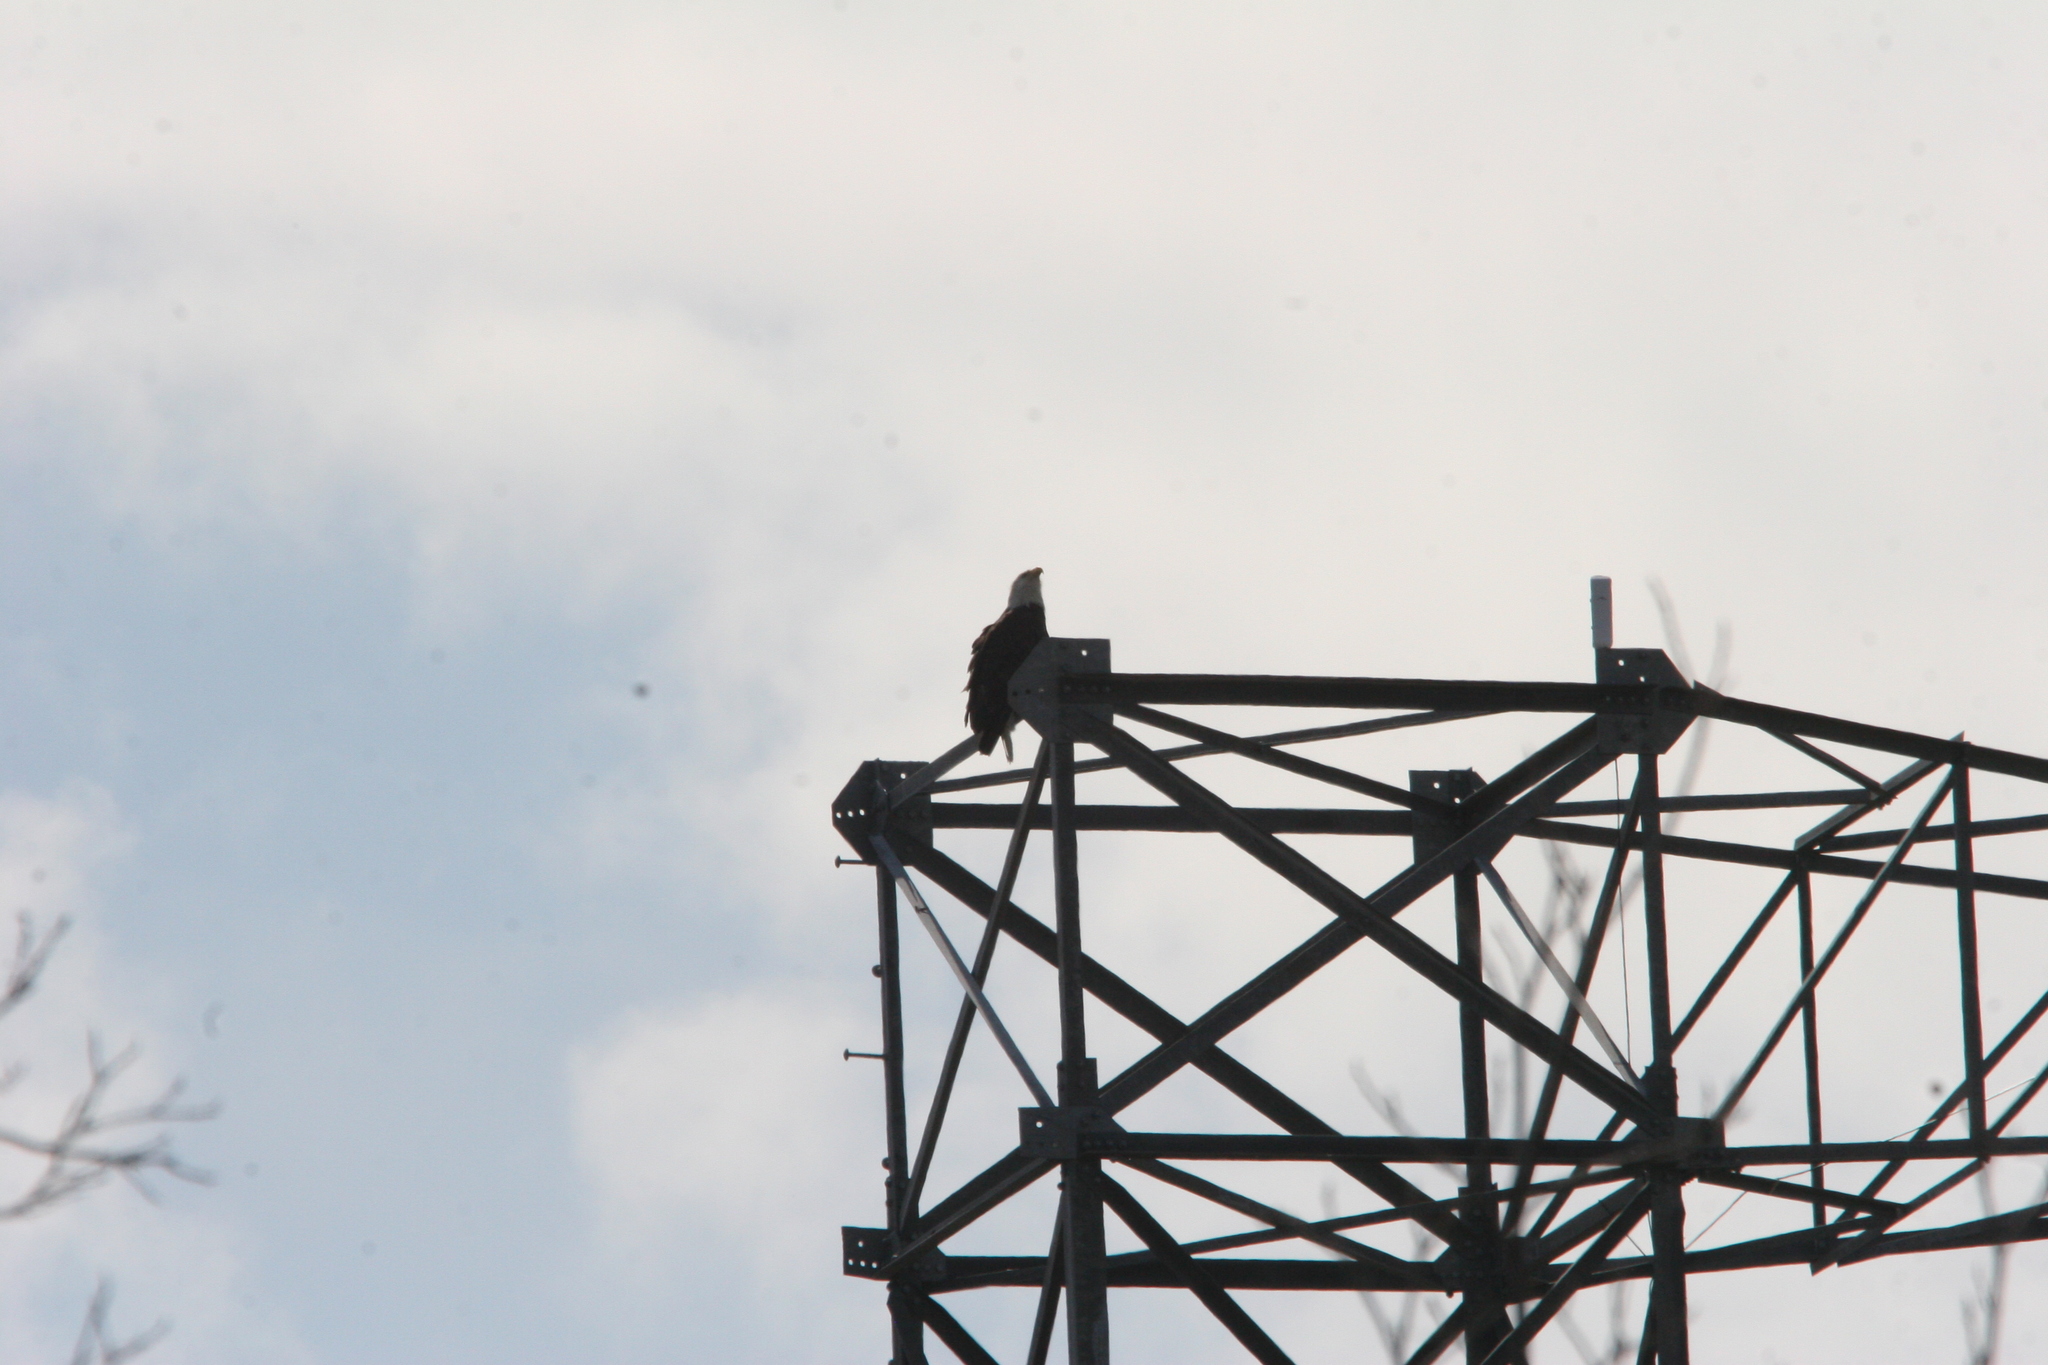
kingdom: Animalia
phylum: Chordata
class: Aves
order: Accipitriformes
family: Accipitridae
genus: Haliaeetus
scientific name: Haliaeetus leucocephalus
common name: Bald eagle
